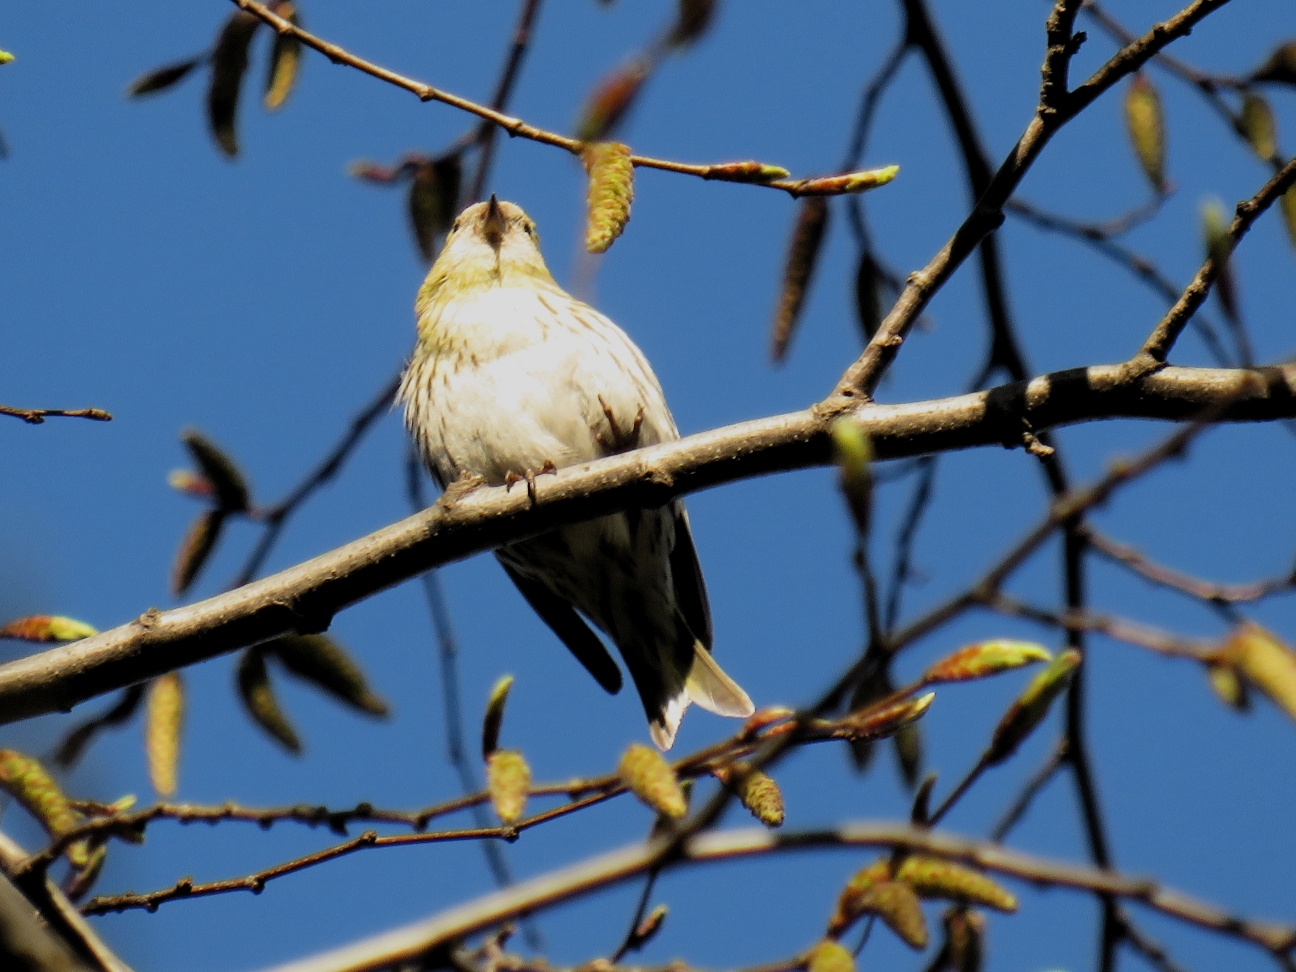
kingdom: Animalia
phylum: Chordata
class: Aves
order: Passeriformes
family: Fringillidae
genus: Spinus
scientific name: Spinus spinus
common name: Eurasian siskin
